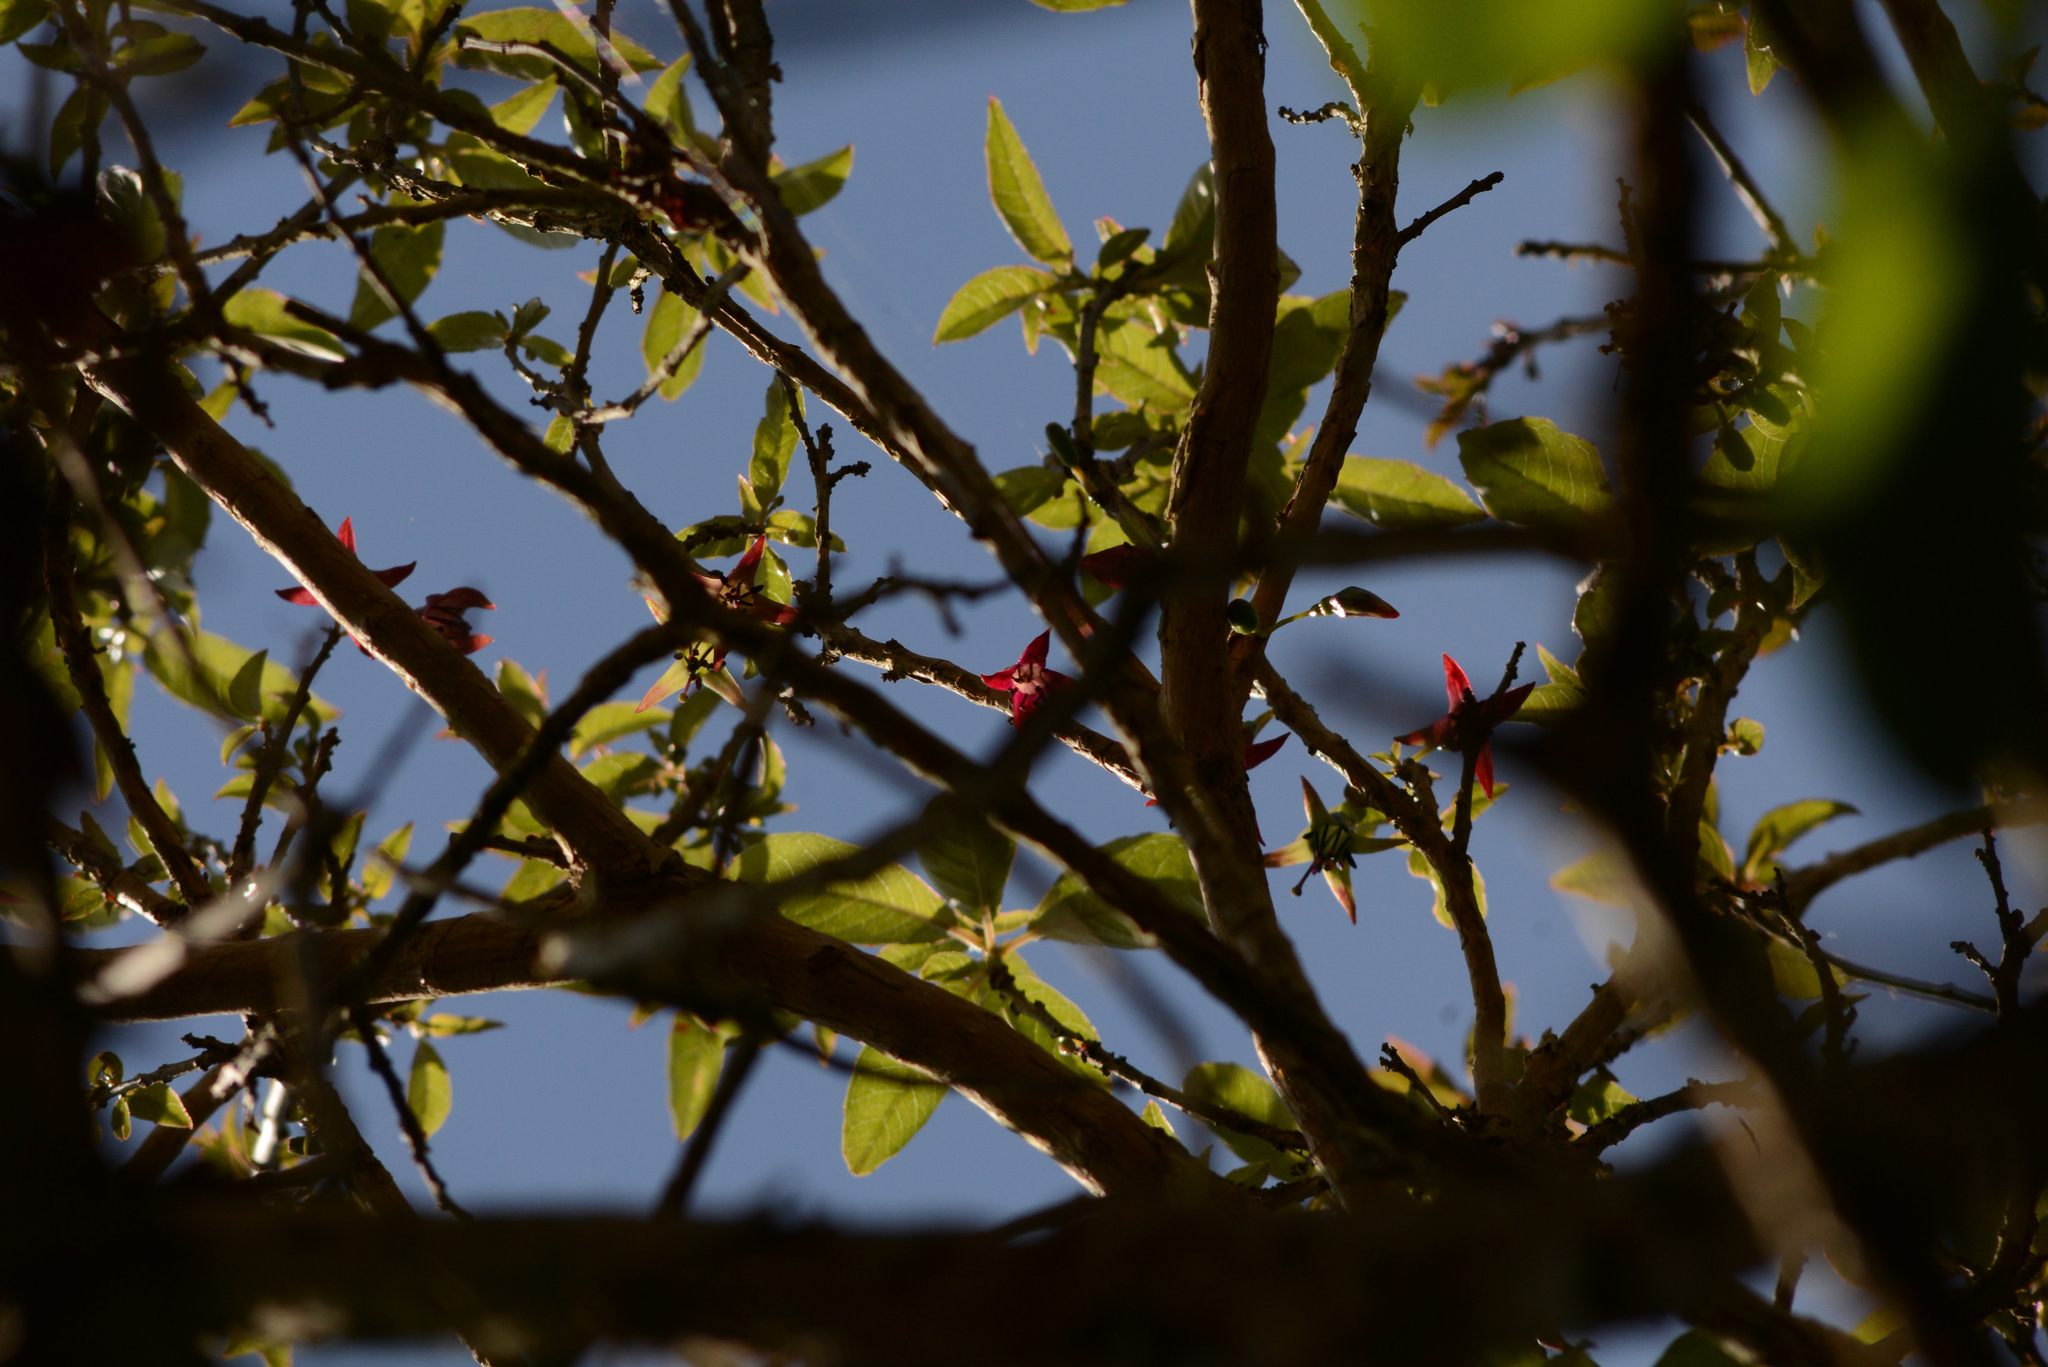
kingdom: Plantae
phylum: Tracheophyta
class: Magnoliopsida
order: Myrtales
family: Onagraceae
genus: Fuchsia
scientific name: Fuchsia excorticata
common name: Tree fuchsia
